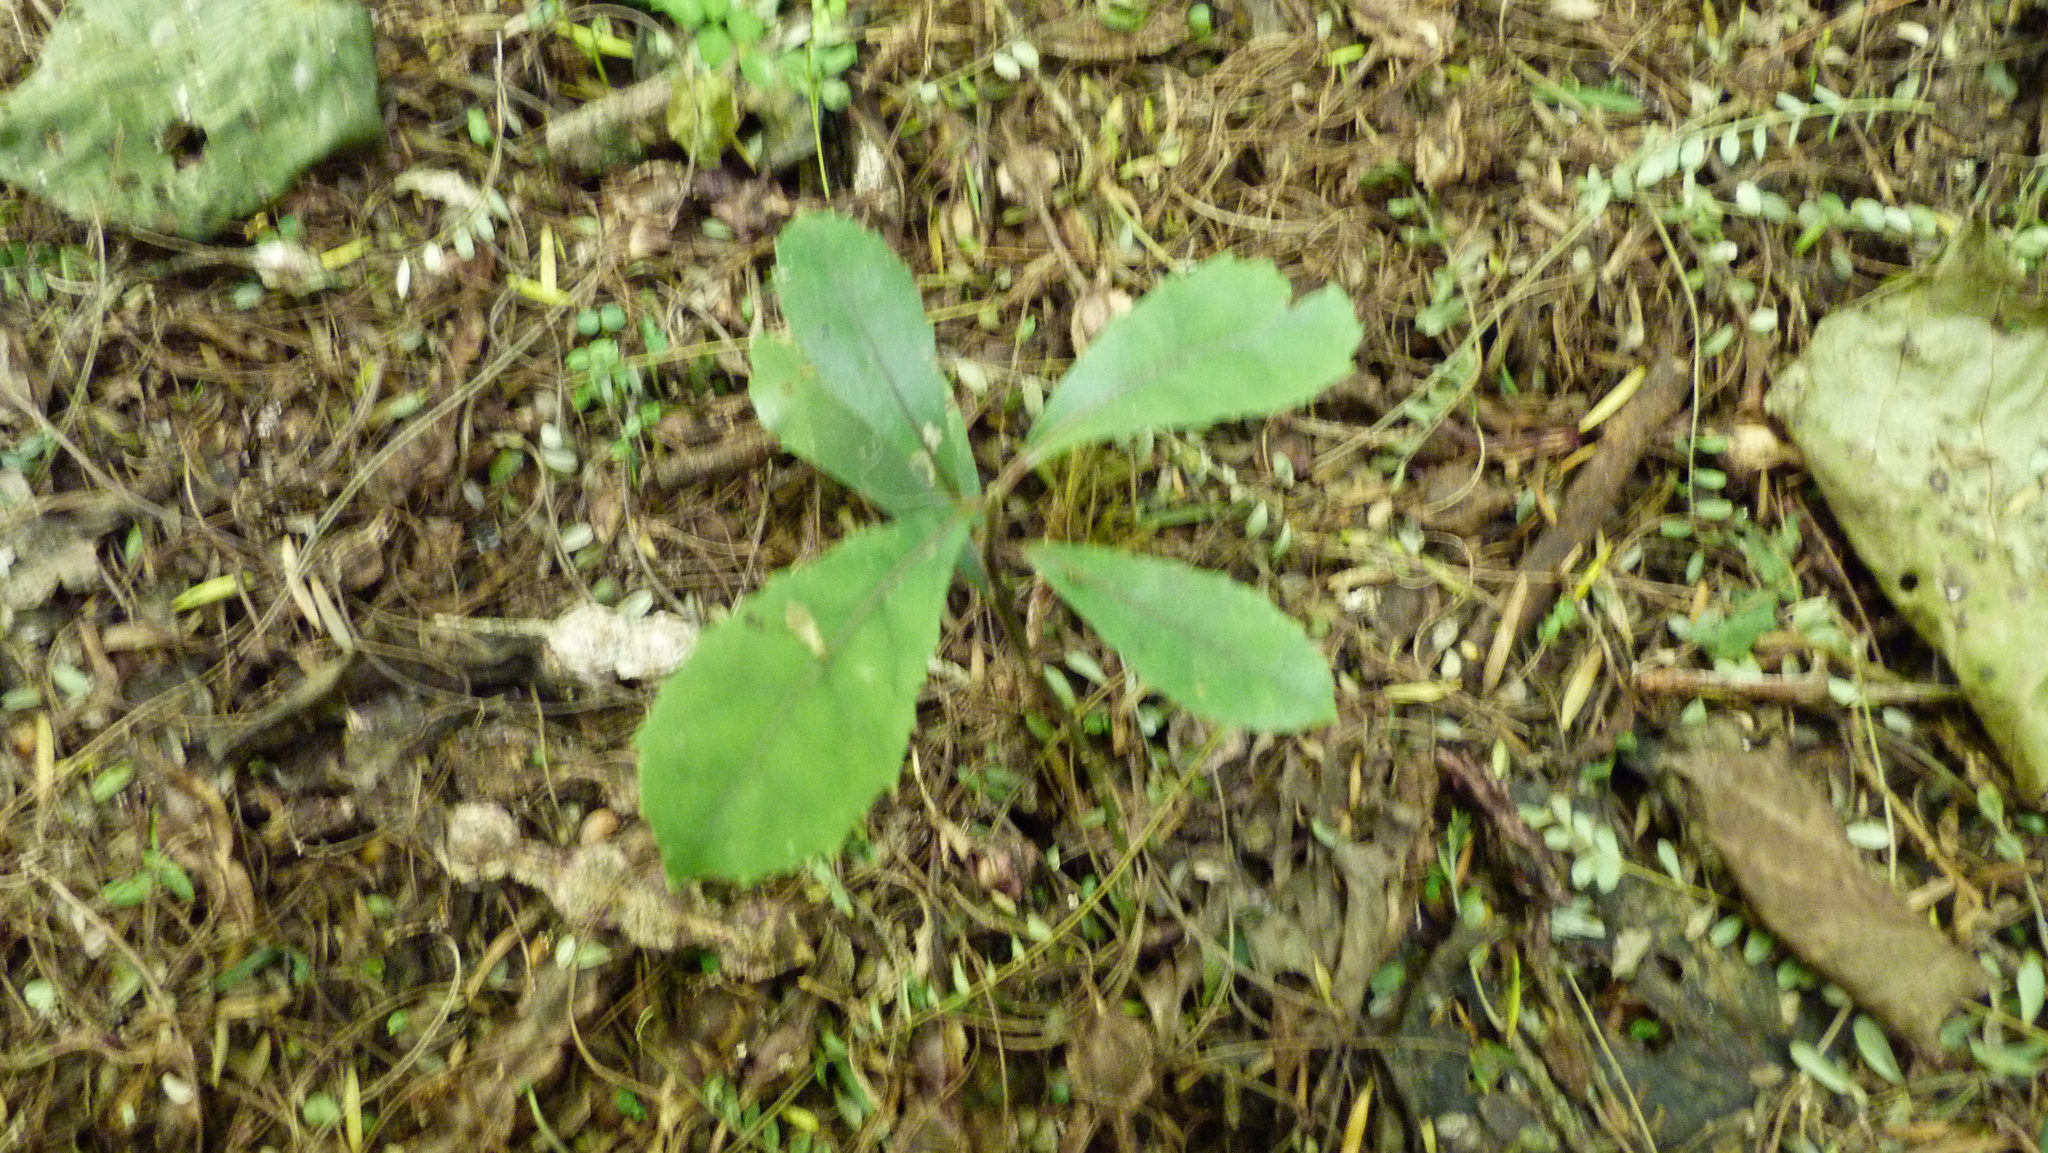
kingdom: Plantae
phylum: Tracheophyta
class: Magnoliopsida
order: Laurales
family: Monimiaceae
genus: Hedycarya
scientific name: Hedycarya arborea
